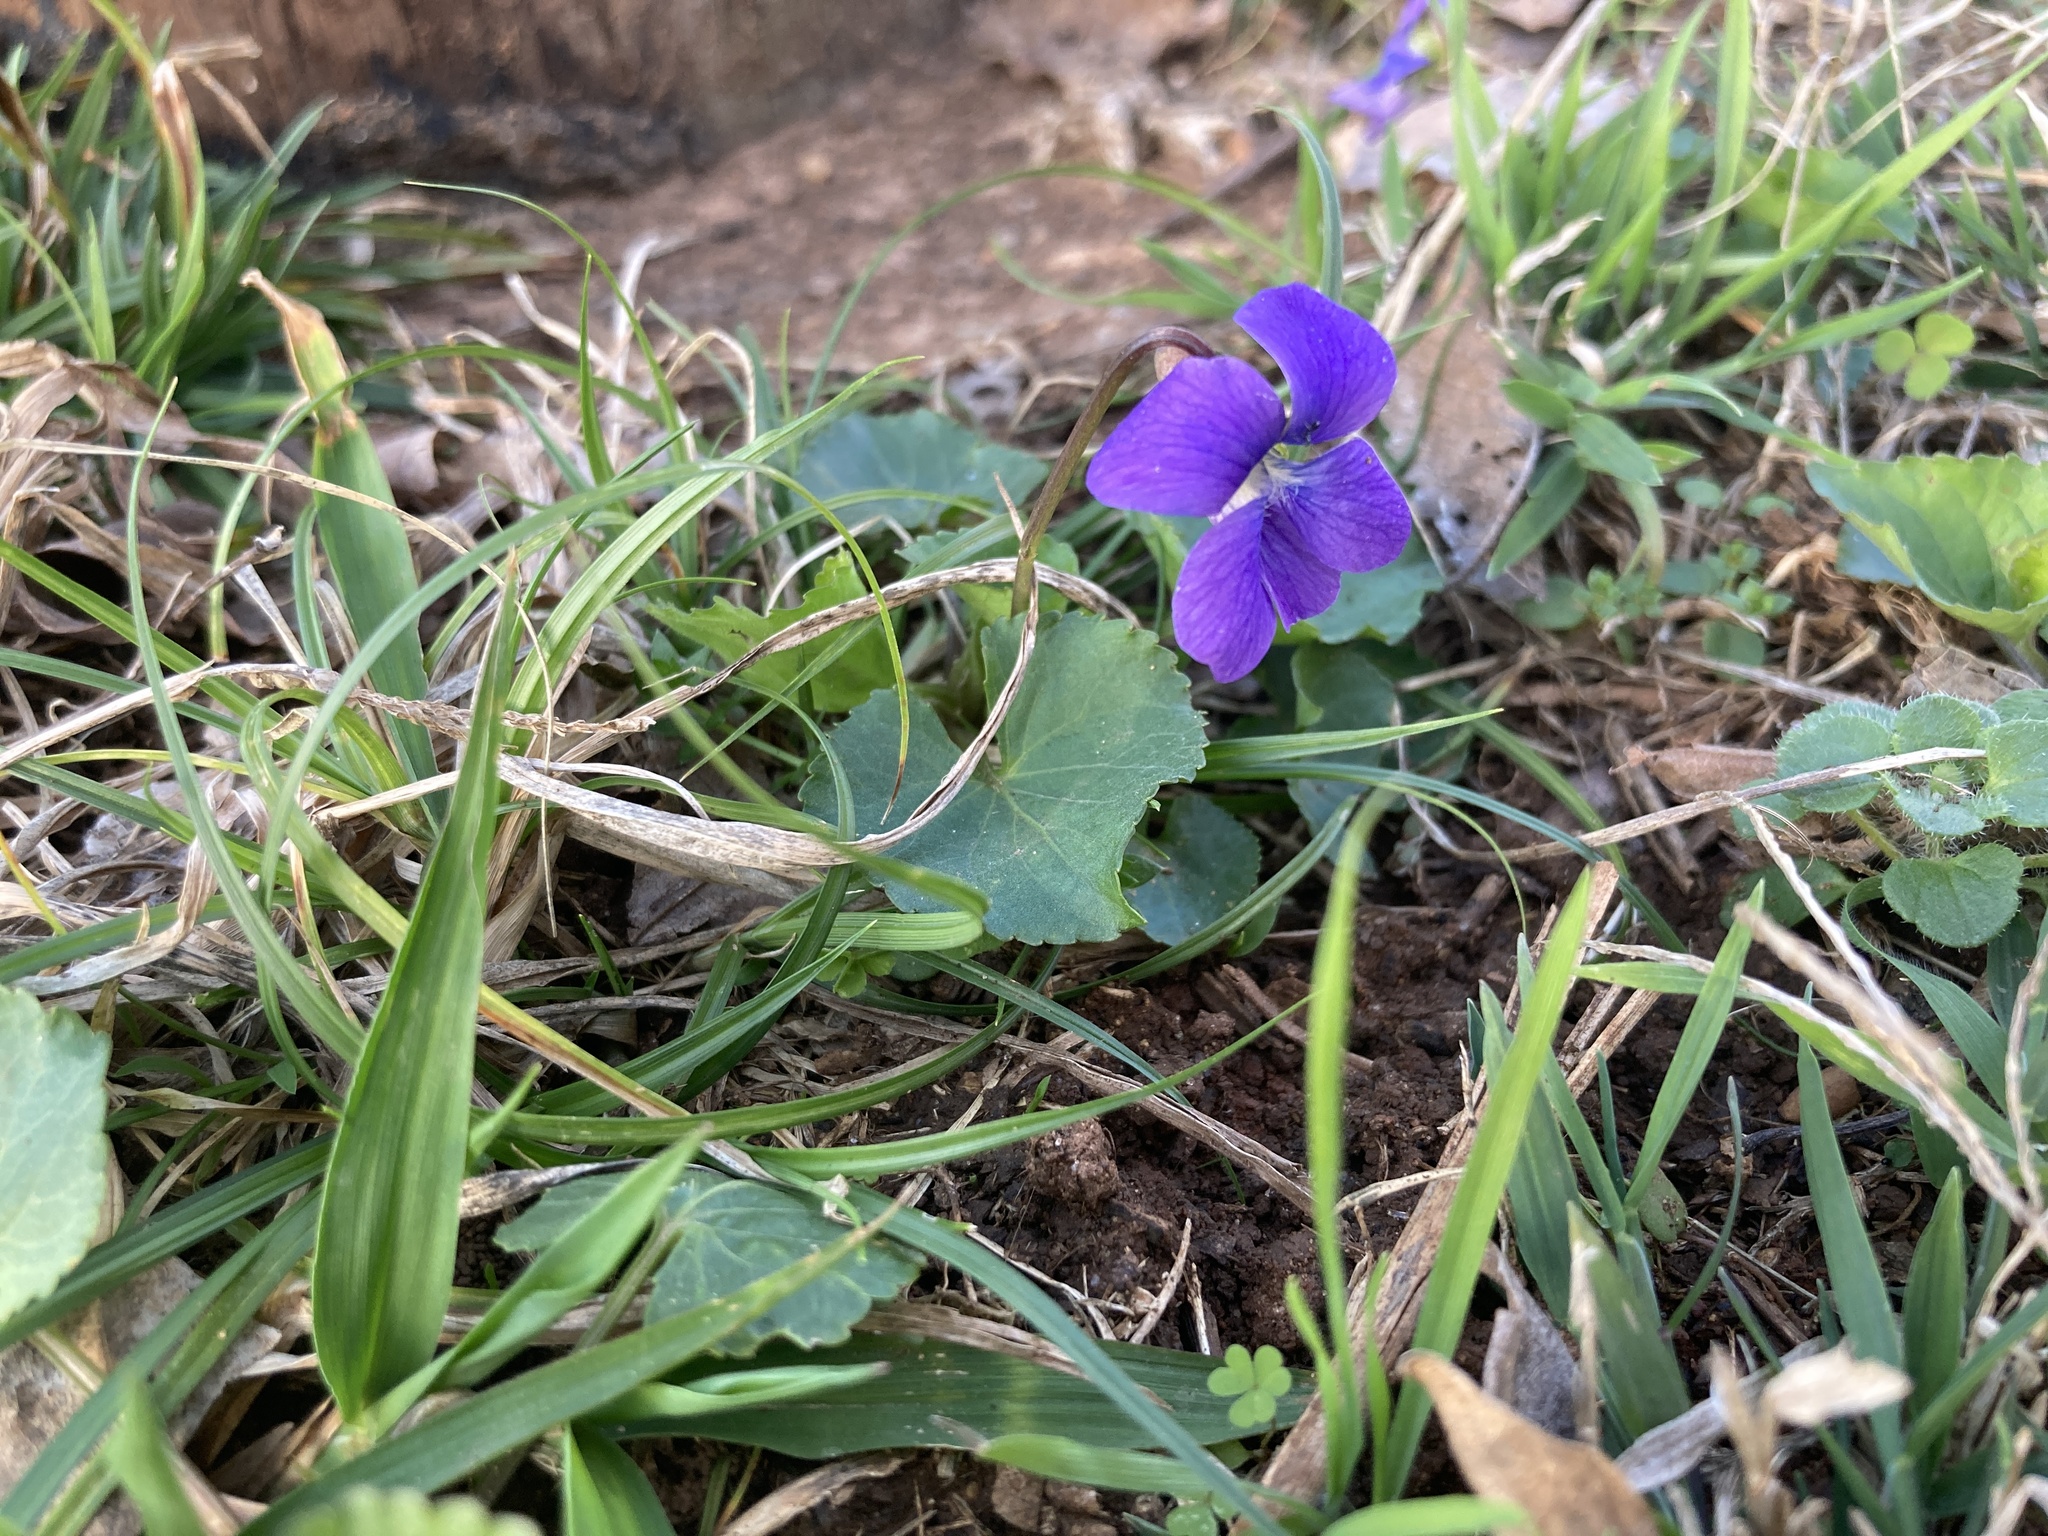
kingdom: Plantae
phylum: Tracheophyta
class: Magnoliopsida
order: Malpighiales
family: Violaceae
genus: Viola
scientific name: Viola sororia
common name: Dooryard violet
